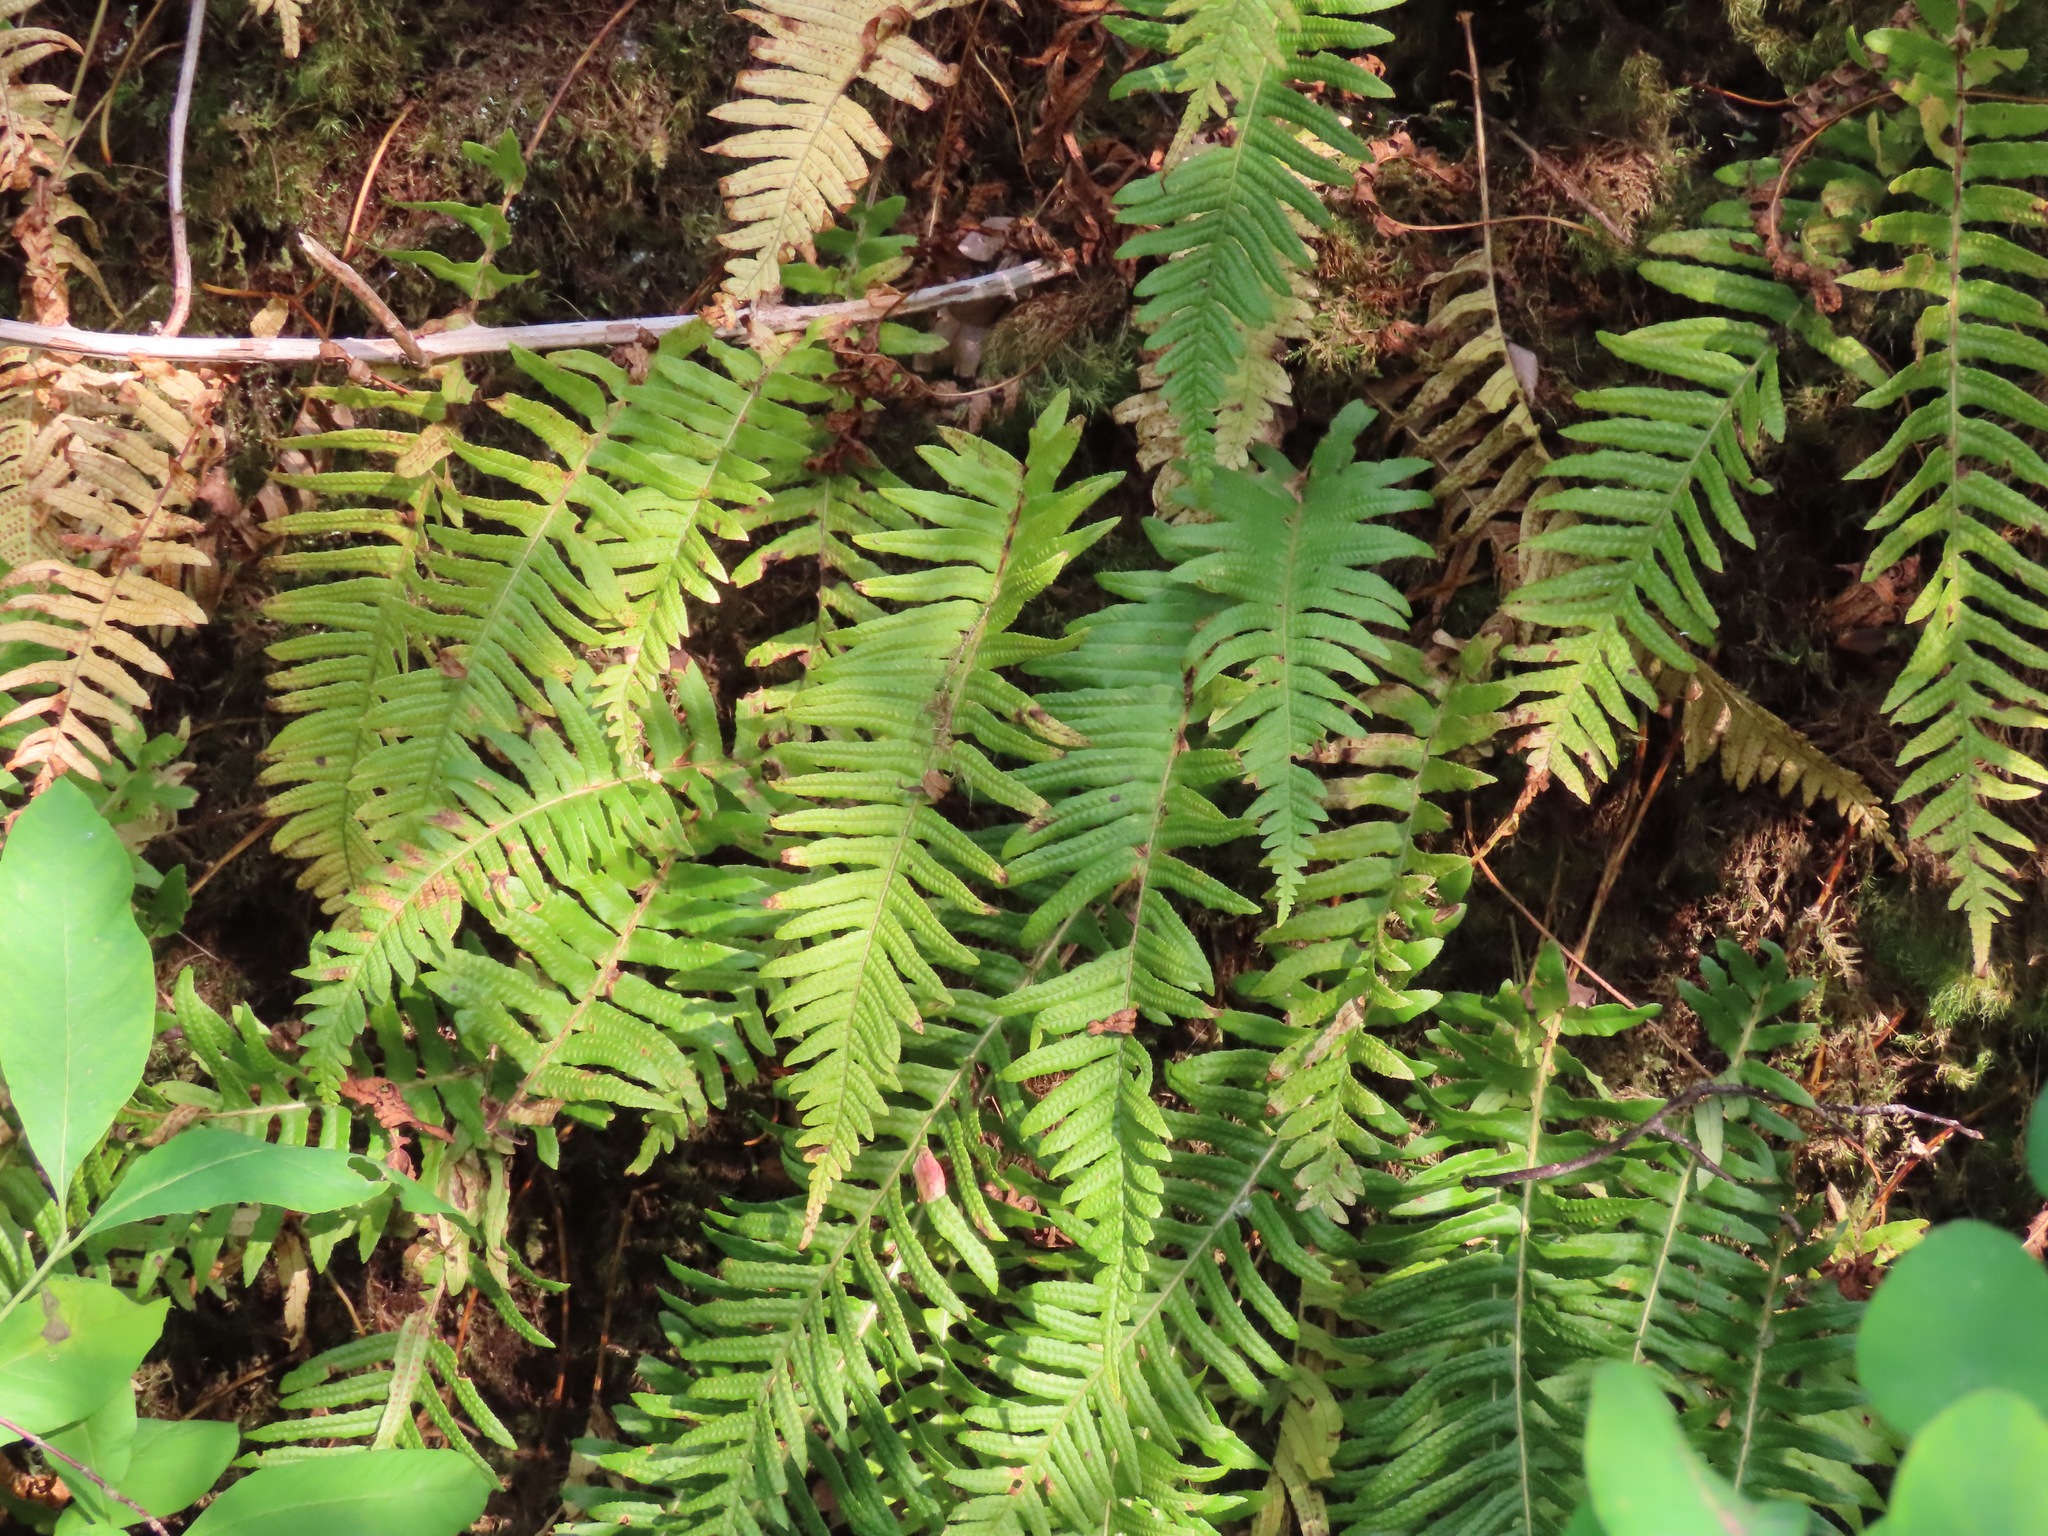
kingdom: Plantae
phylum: Tracheophyta
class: Polypodiopsida
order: Polypodiales
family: Polypodiaceae
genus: Polypodium
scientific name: Polypodium glycyrrhiza
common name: Licorice fern
